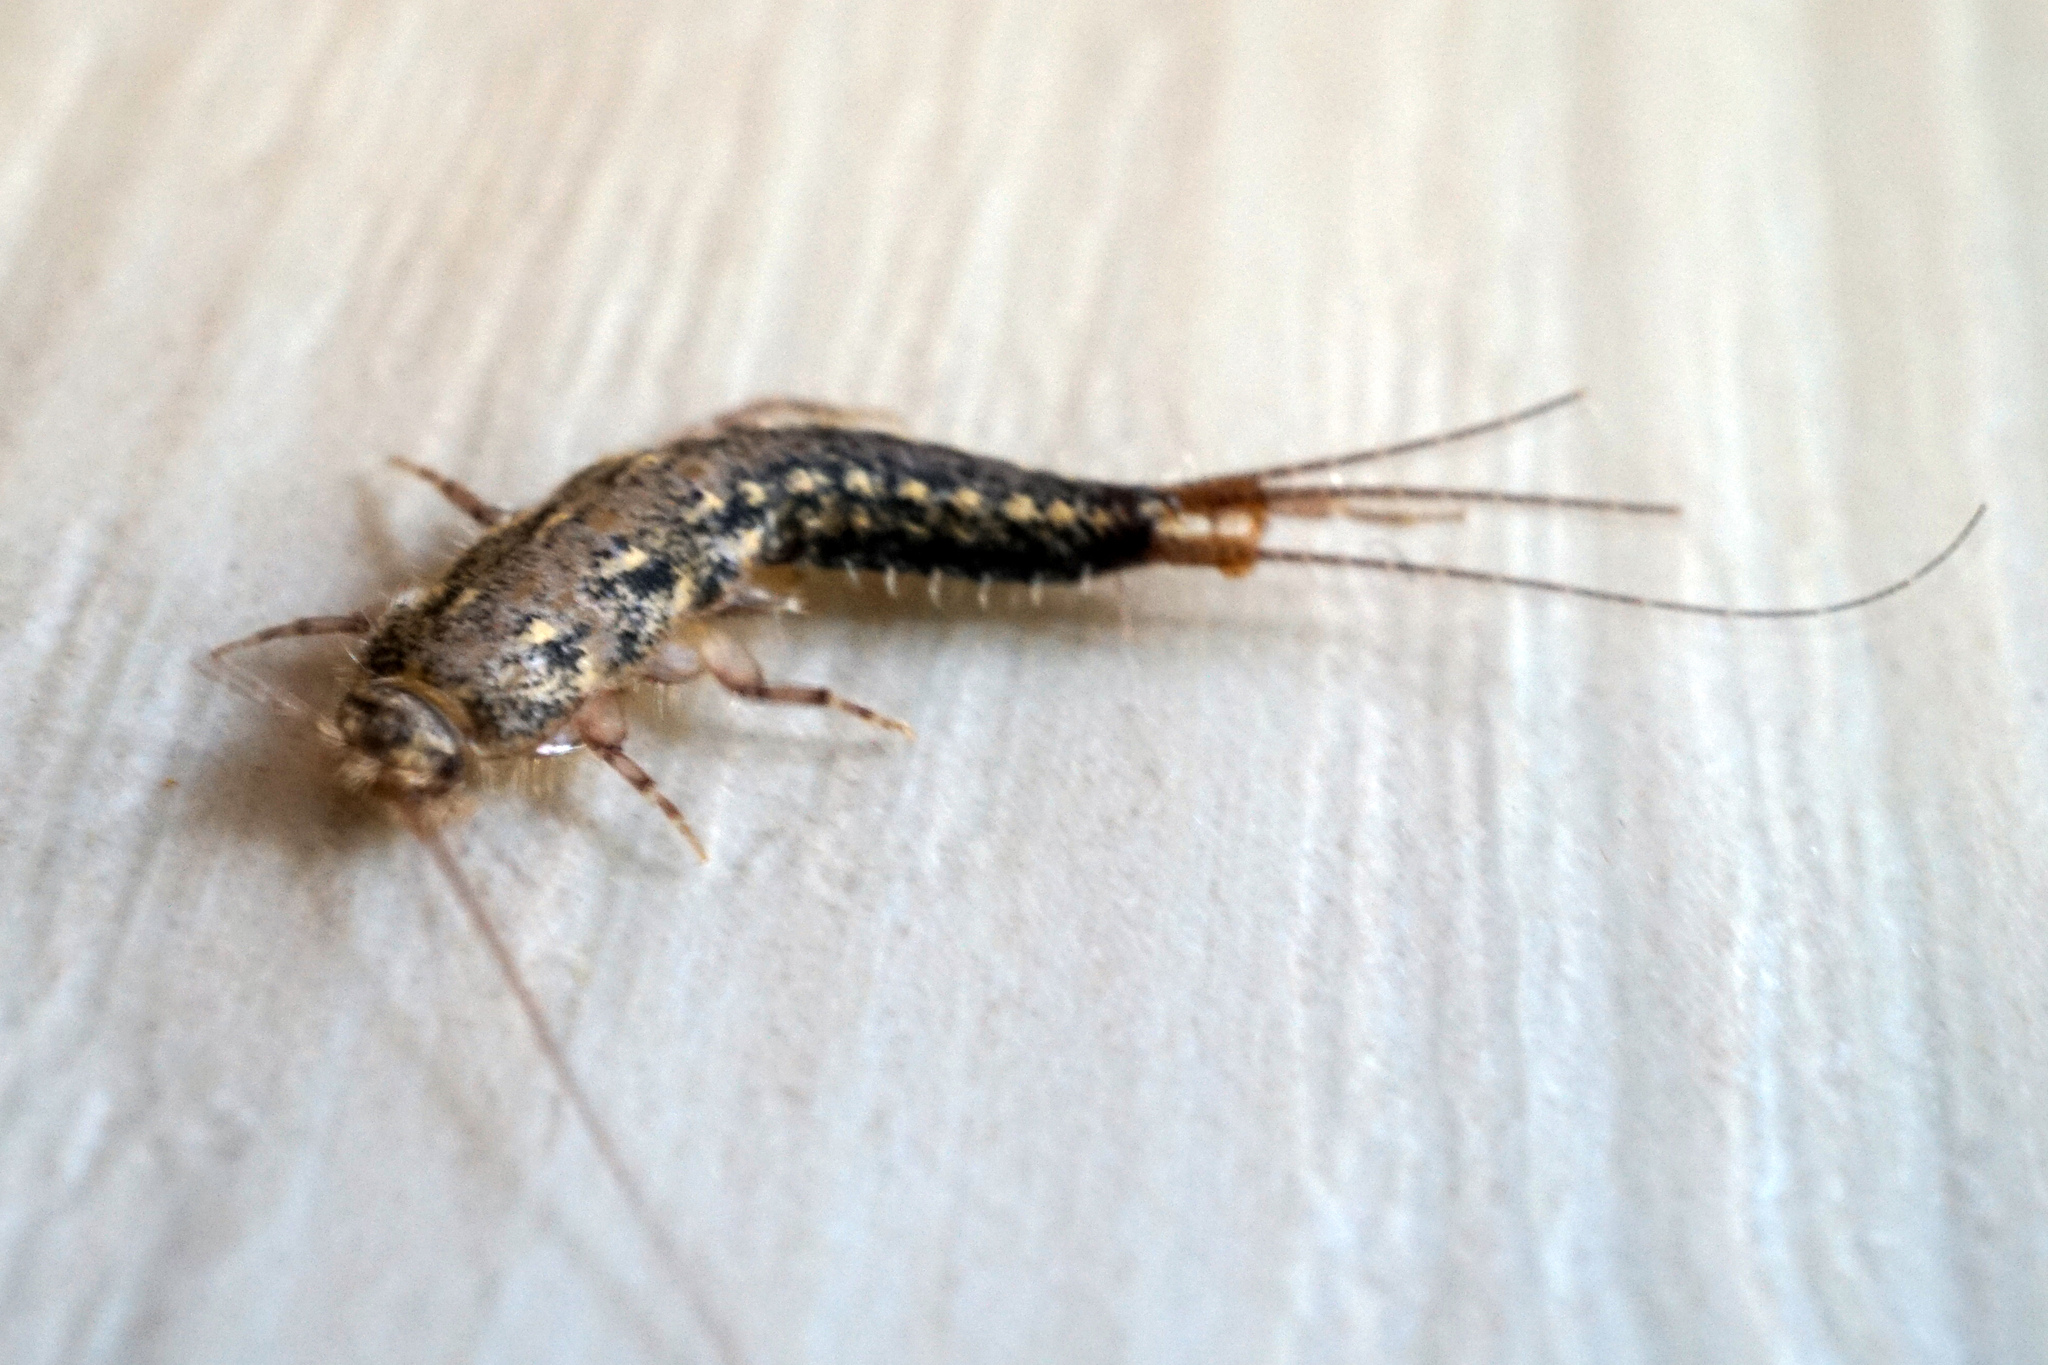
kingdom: Animalia
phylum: Arthropoda
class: Insecta
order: Zygentoma
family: Lepismatidae
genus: Ctenolepisma
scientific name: Ctenolepisma lineata
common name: Four-lined silverfish
